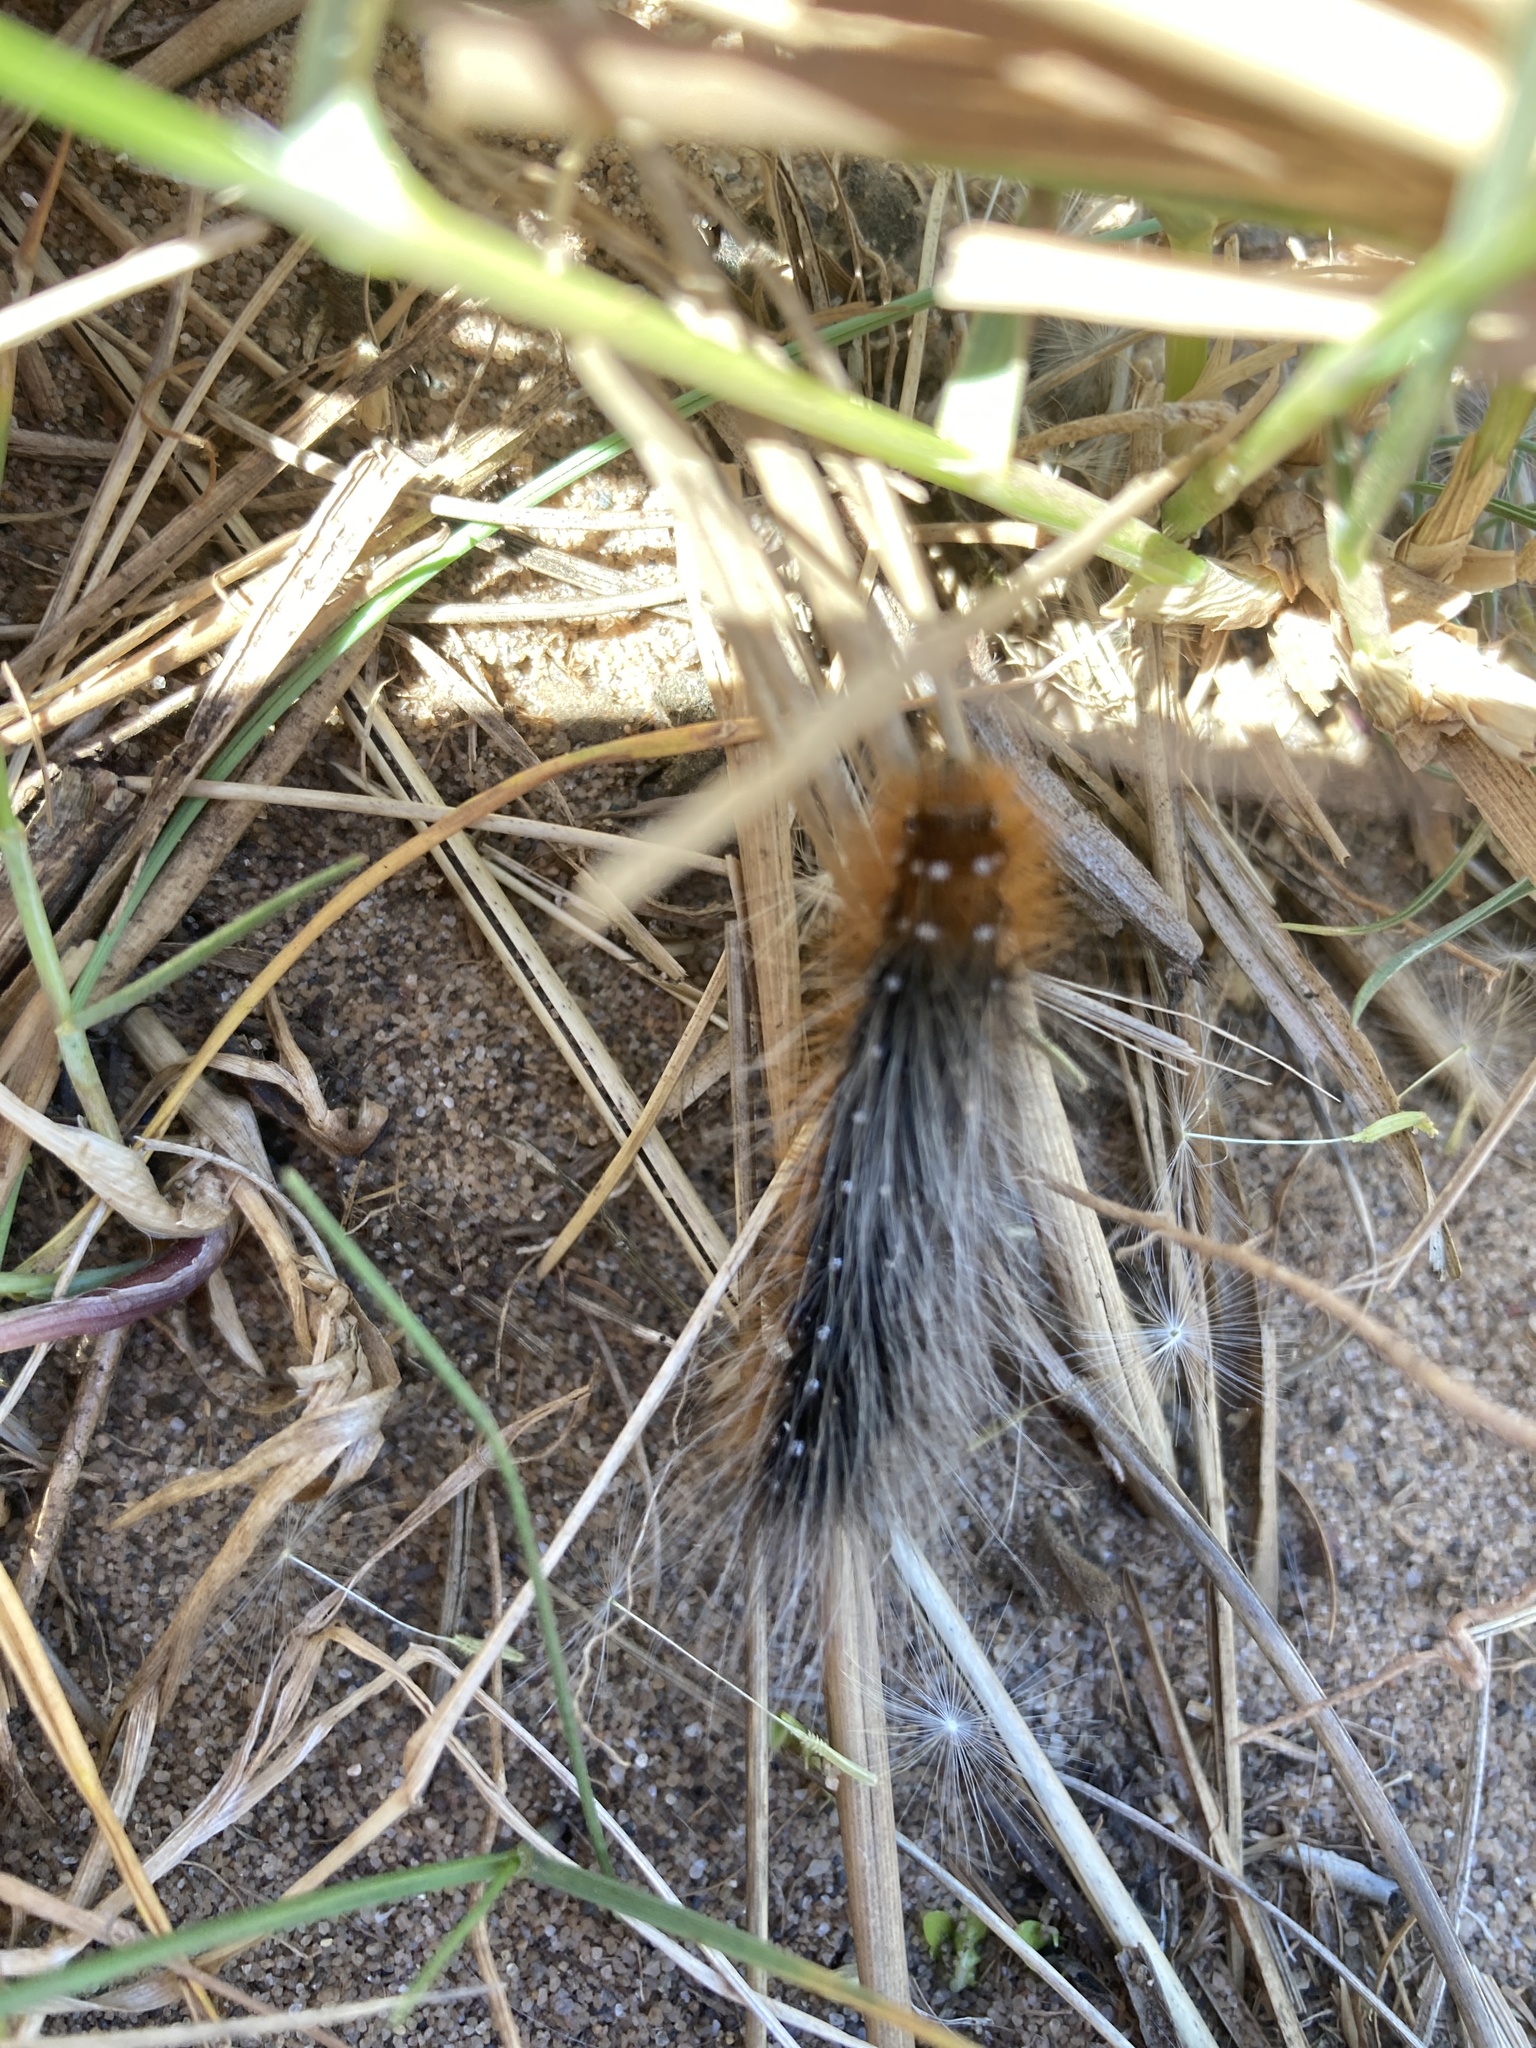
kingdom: Animalia
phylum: Arthropoda
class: Insecta
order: Lepidoptera
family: Erebidae
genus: Arctia
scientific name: Arctia caja
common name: Garden tiger
